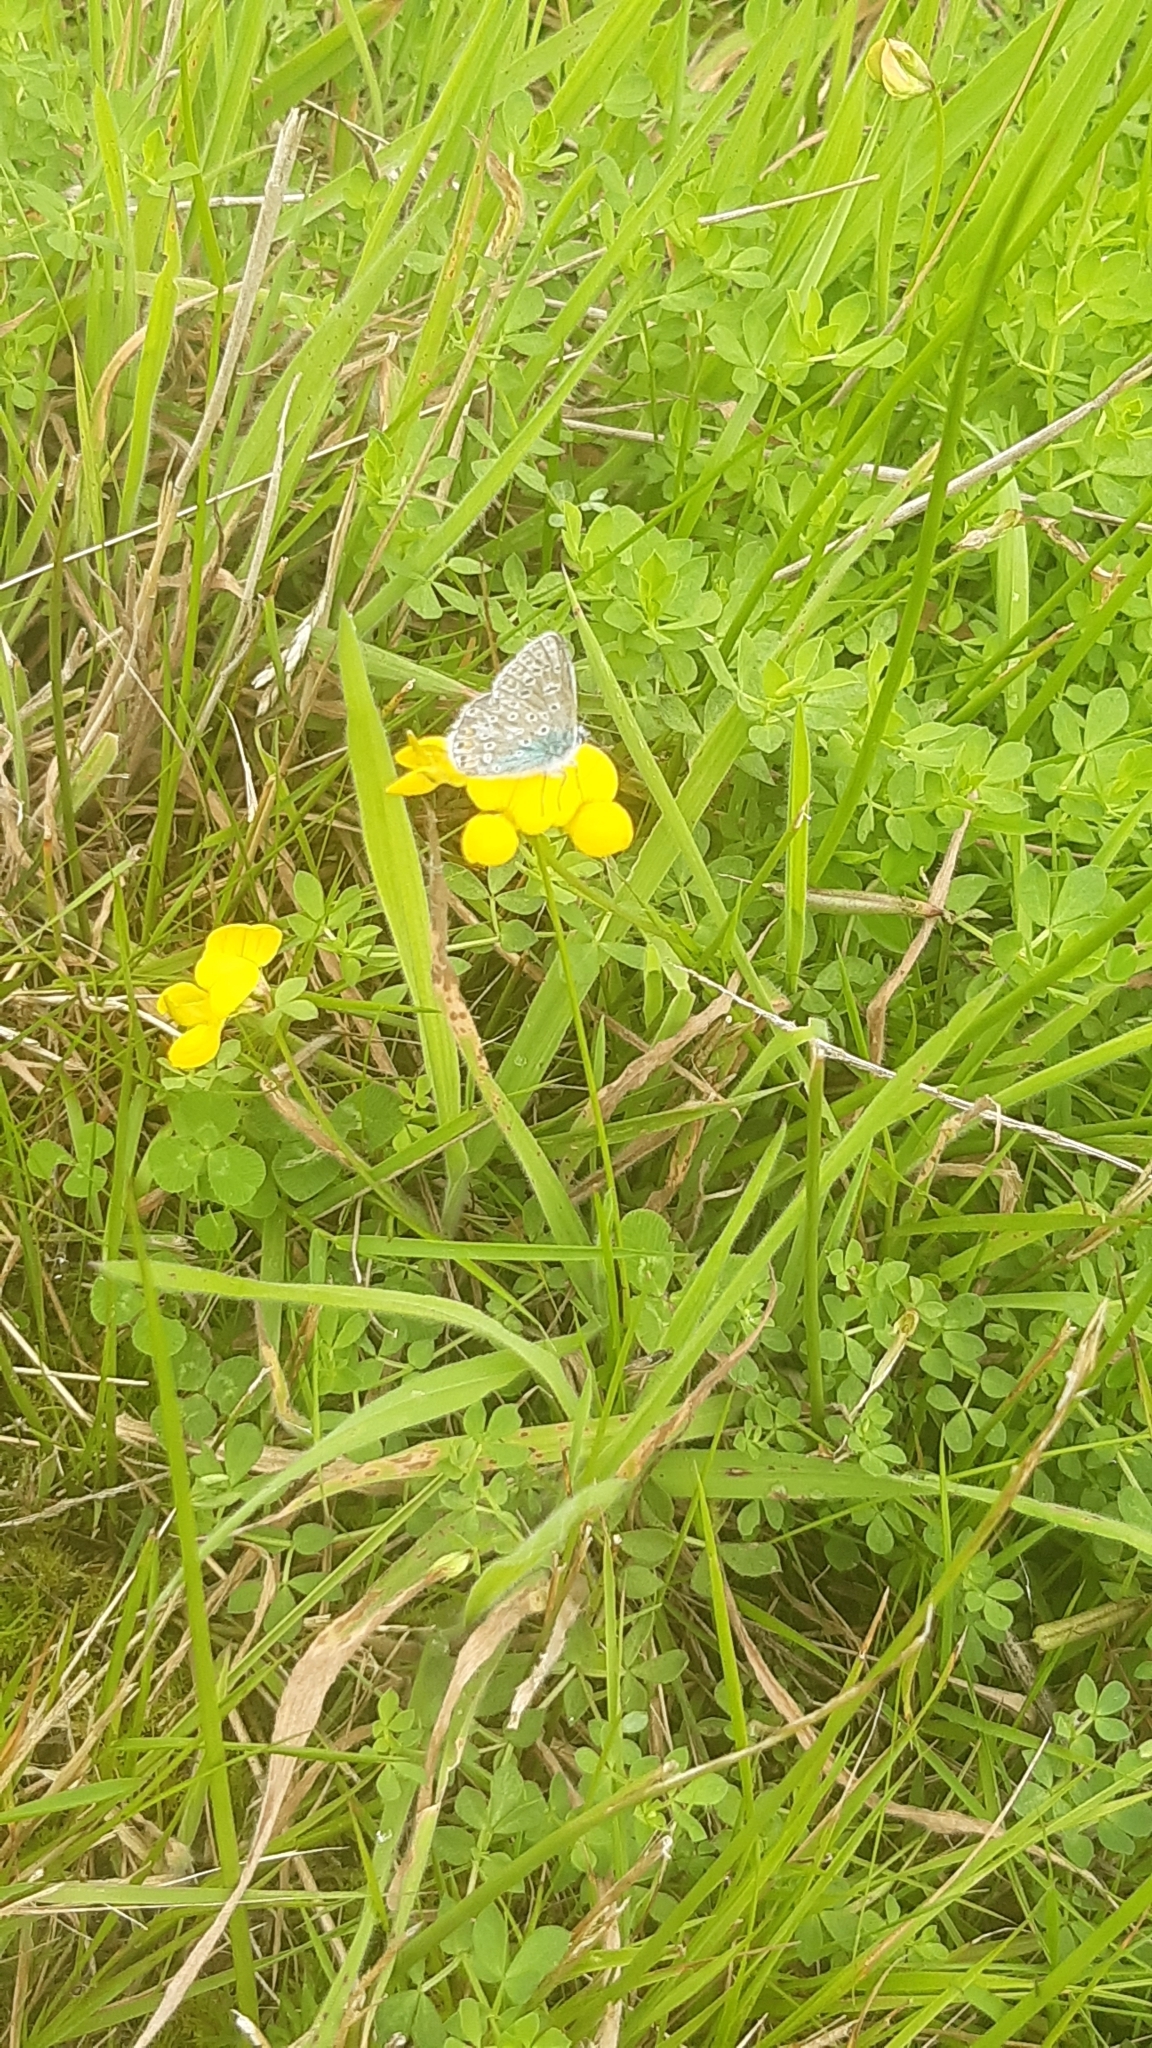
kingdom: Animalia
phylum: Arthropoda
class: Insecta
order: Lepidoptera
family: Lycaenidae
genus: Polyommatus
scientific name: Polyommatus icarus
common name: Common blue
